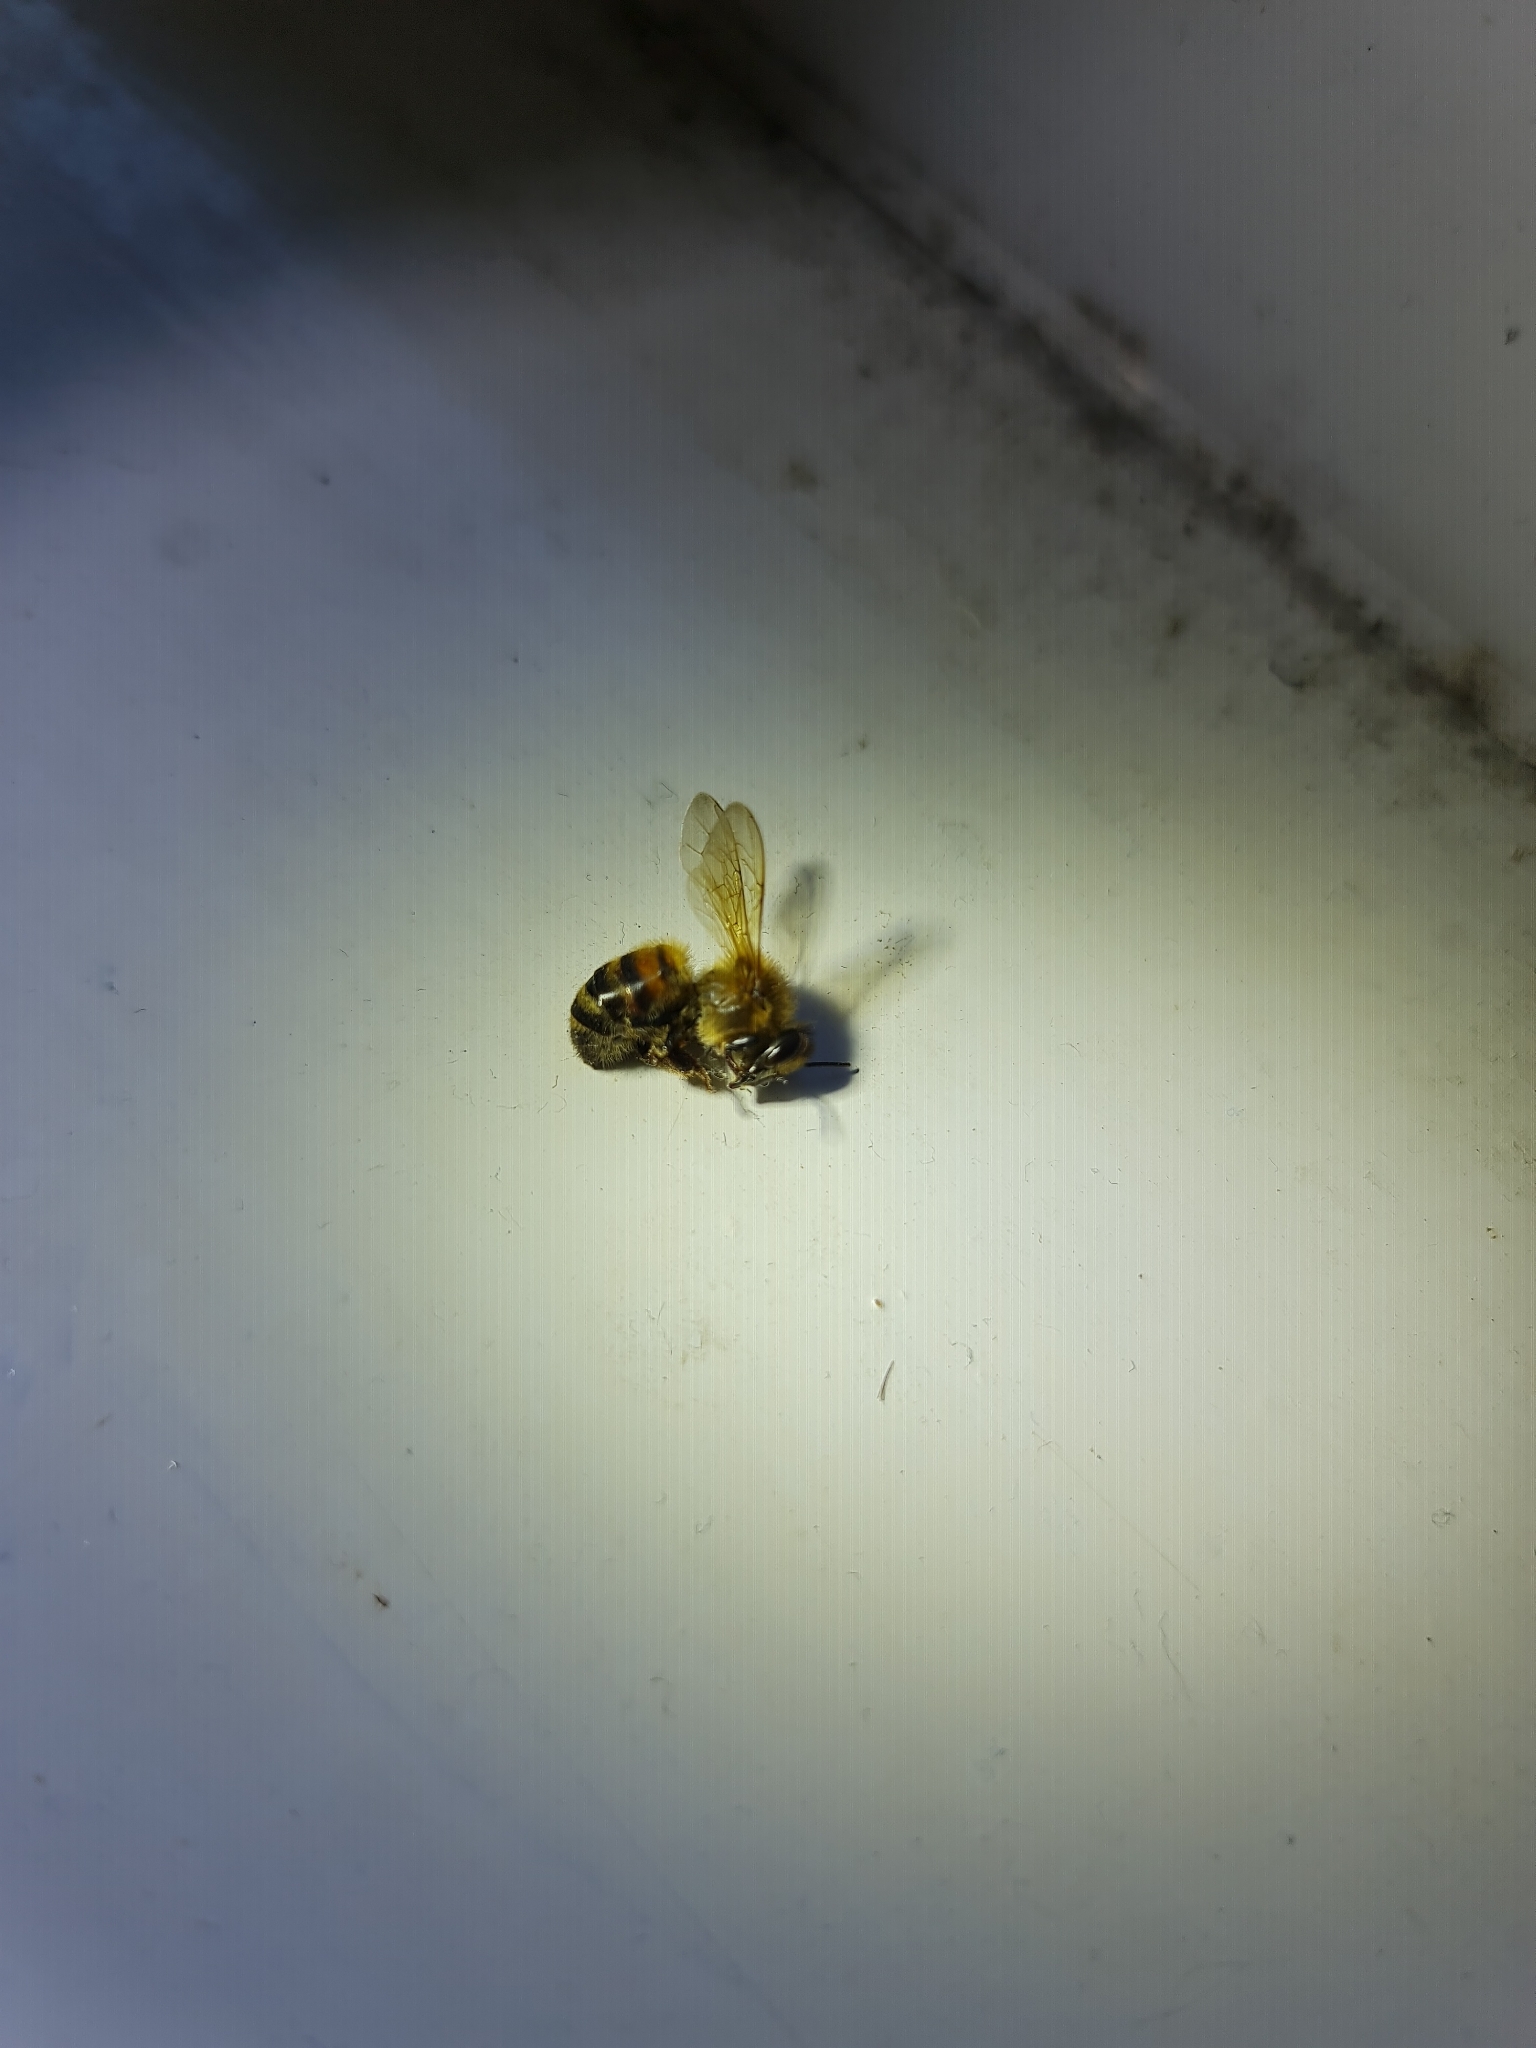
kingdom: Animalia
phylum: Arthropoda
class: Insecta
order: Hymenoptera
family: Apidae
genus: Apis
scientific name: Apis mellifera
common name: Honey bee
